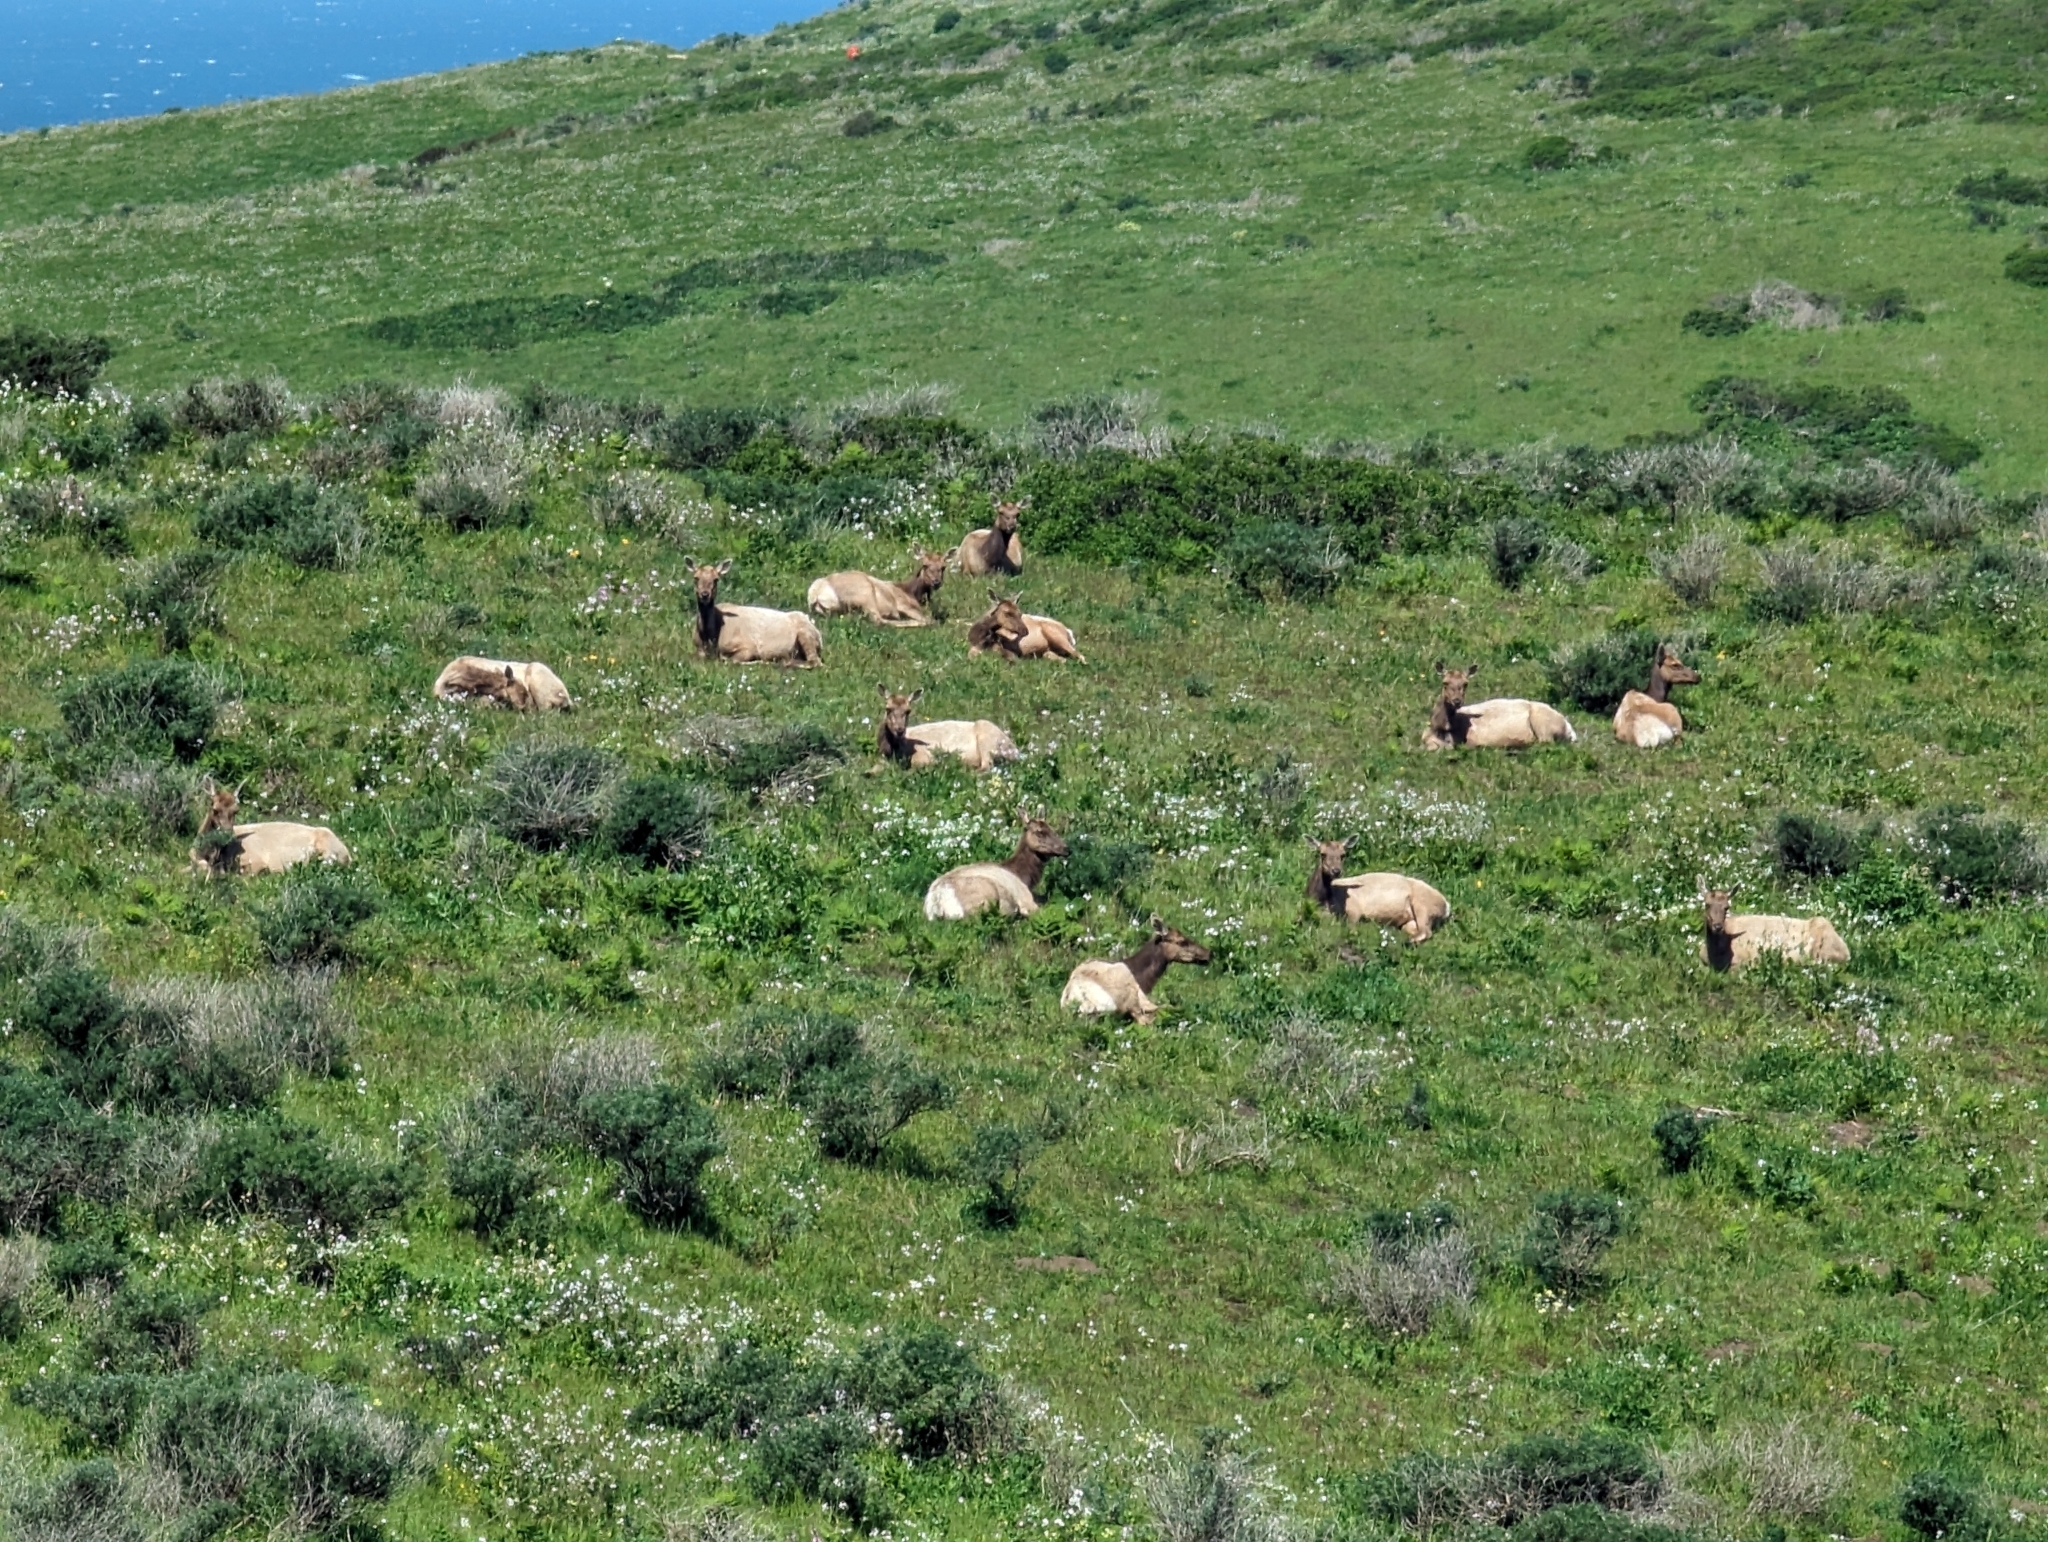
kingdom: Animalia
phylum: Chordata
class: Mammalia
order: Artiodactyla
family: Cervidae
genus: Cervus
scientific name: Cervus elaphus
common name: Red deer
